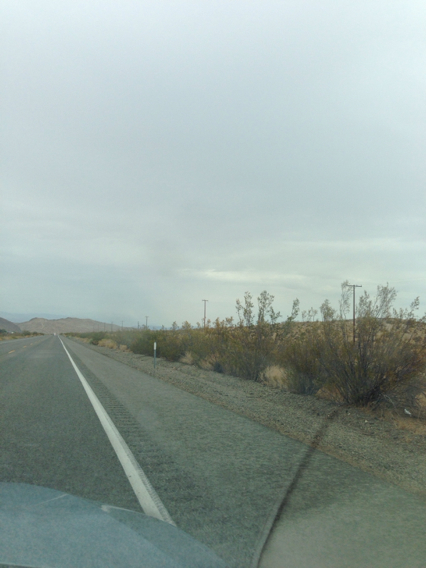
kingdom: Plantae
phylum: Tracheophyta
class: Magnoliopsida
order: Zygophyllales
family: Zygophyllaceae
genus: Larrea
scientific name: Larrea tridentata
